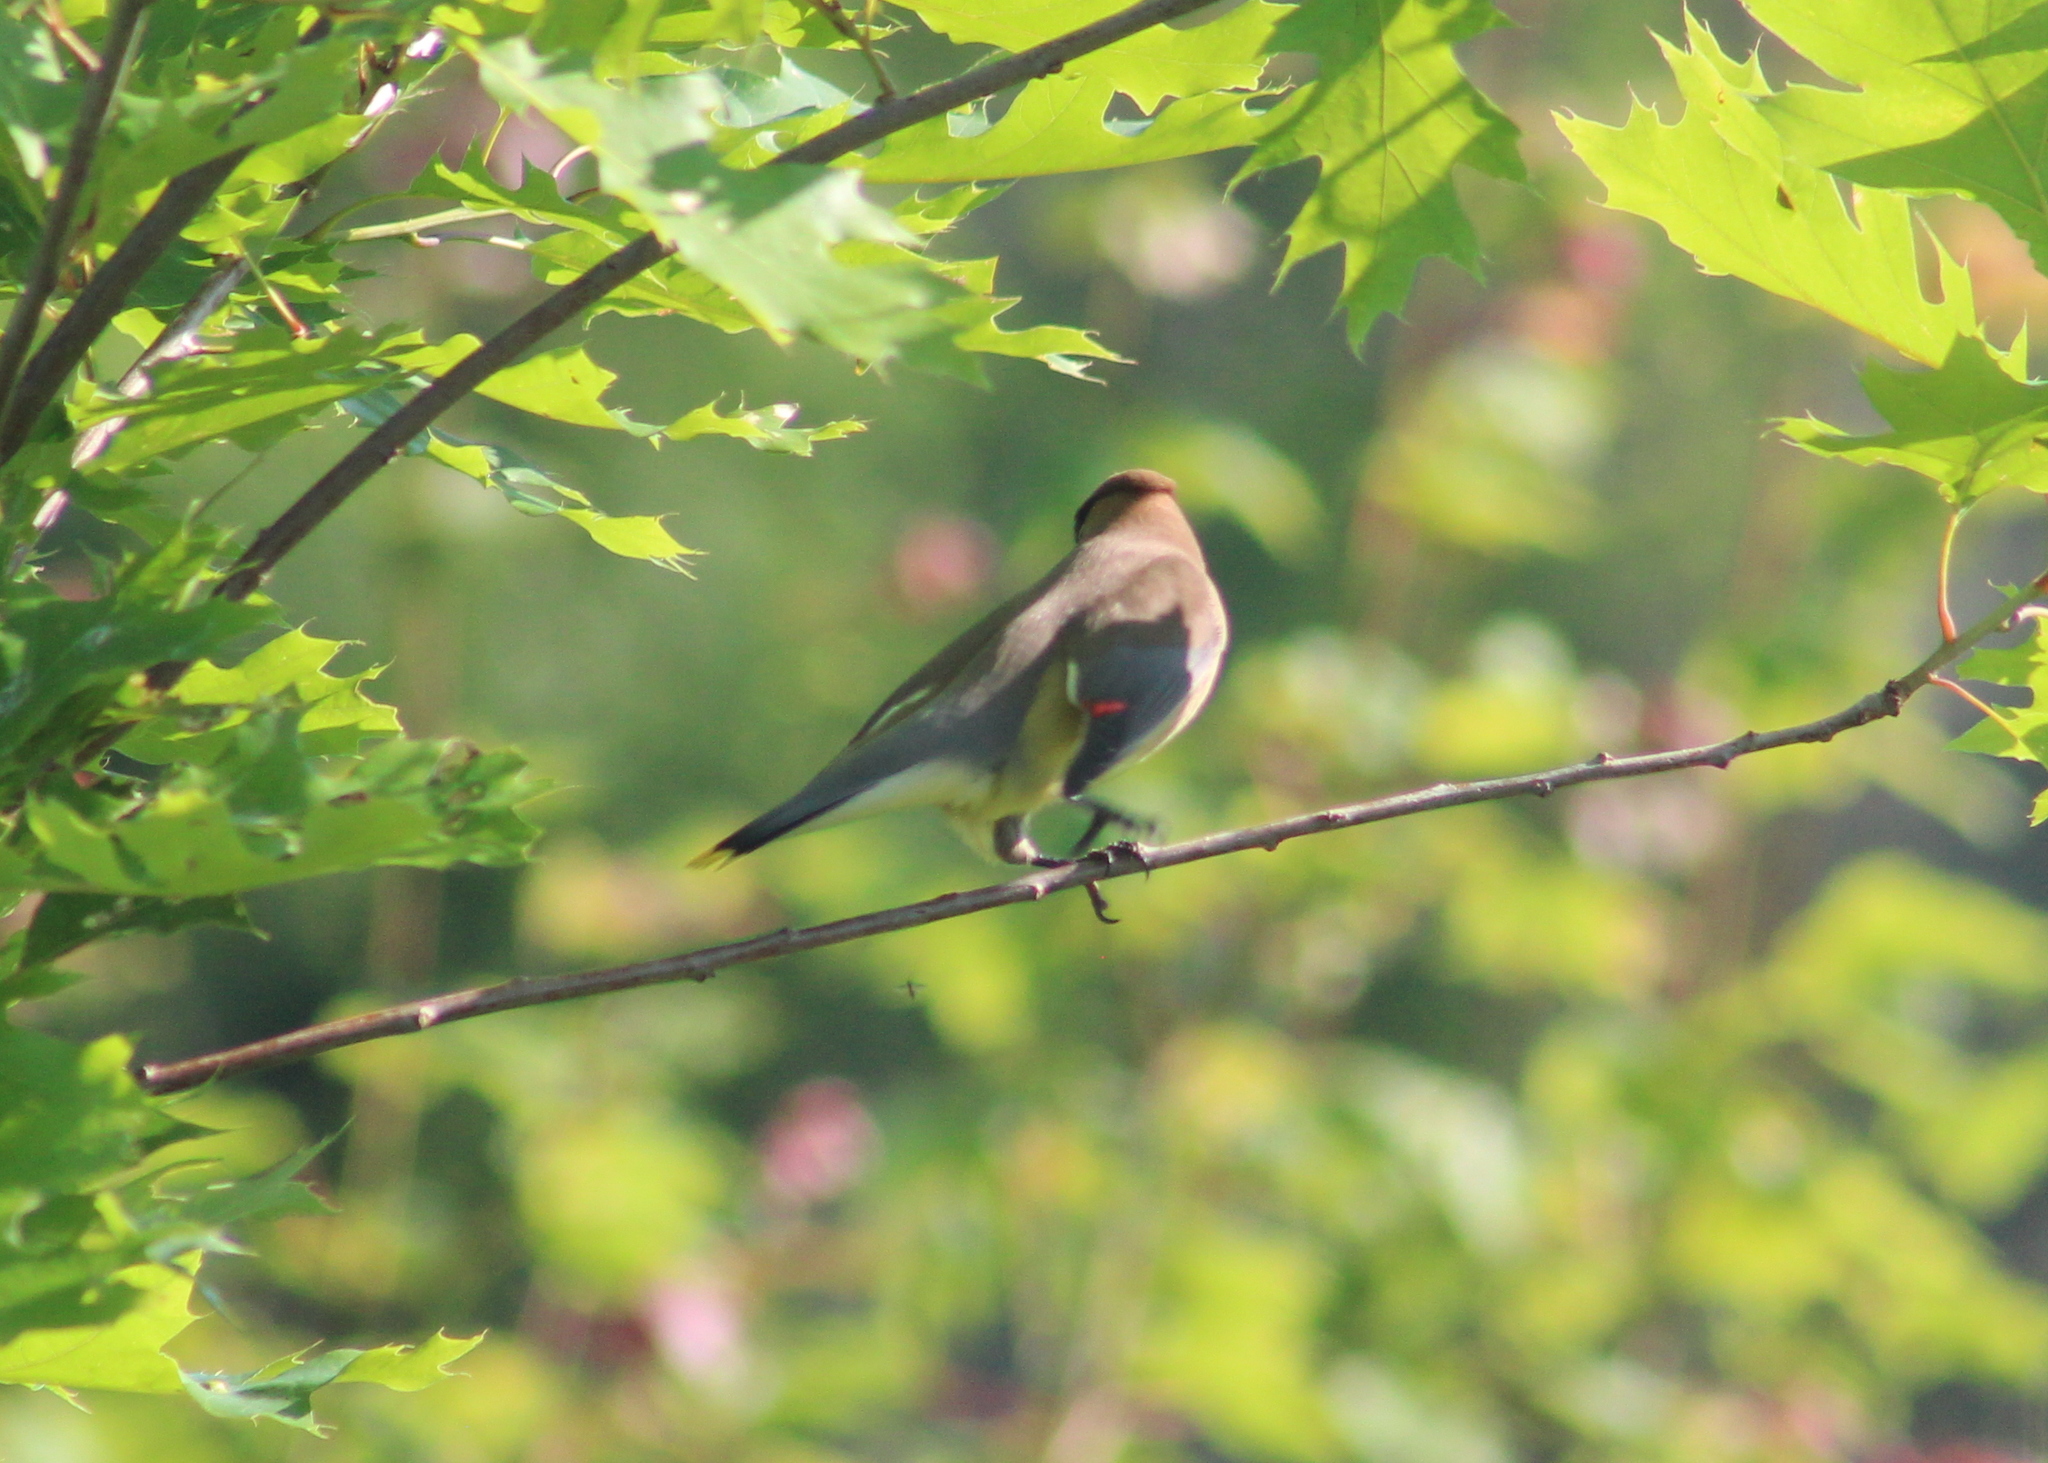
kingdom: Animalia
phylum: Chordata
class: Aves
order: Passeriformes
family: Bombycillidae
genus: Bombycilla
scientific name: Bombycilla cedrorum
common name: Cedar waxwing
